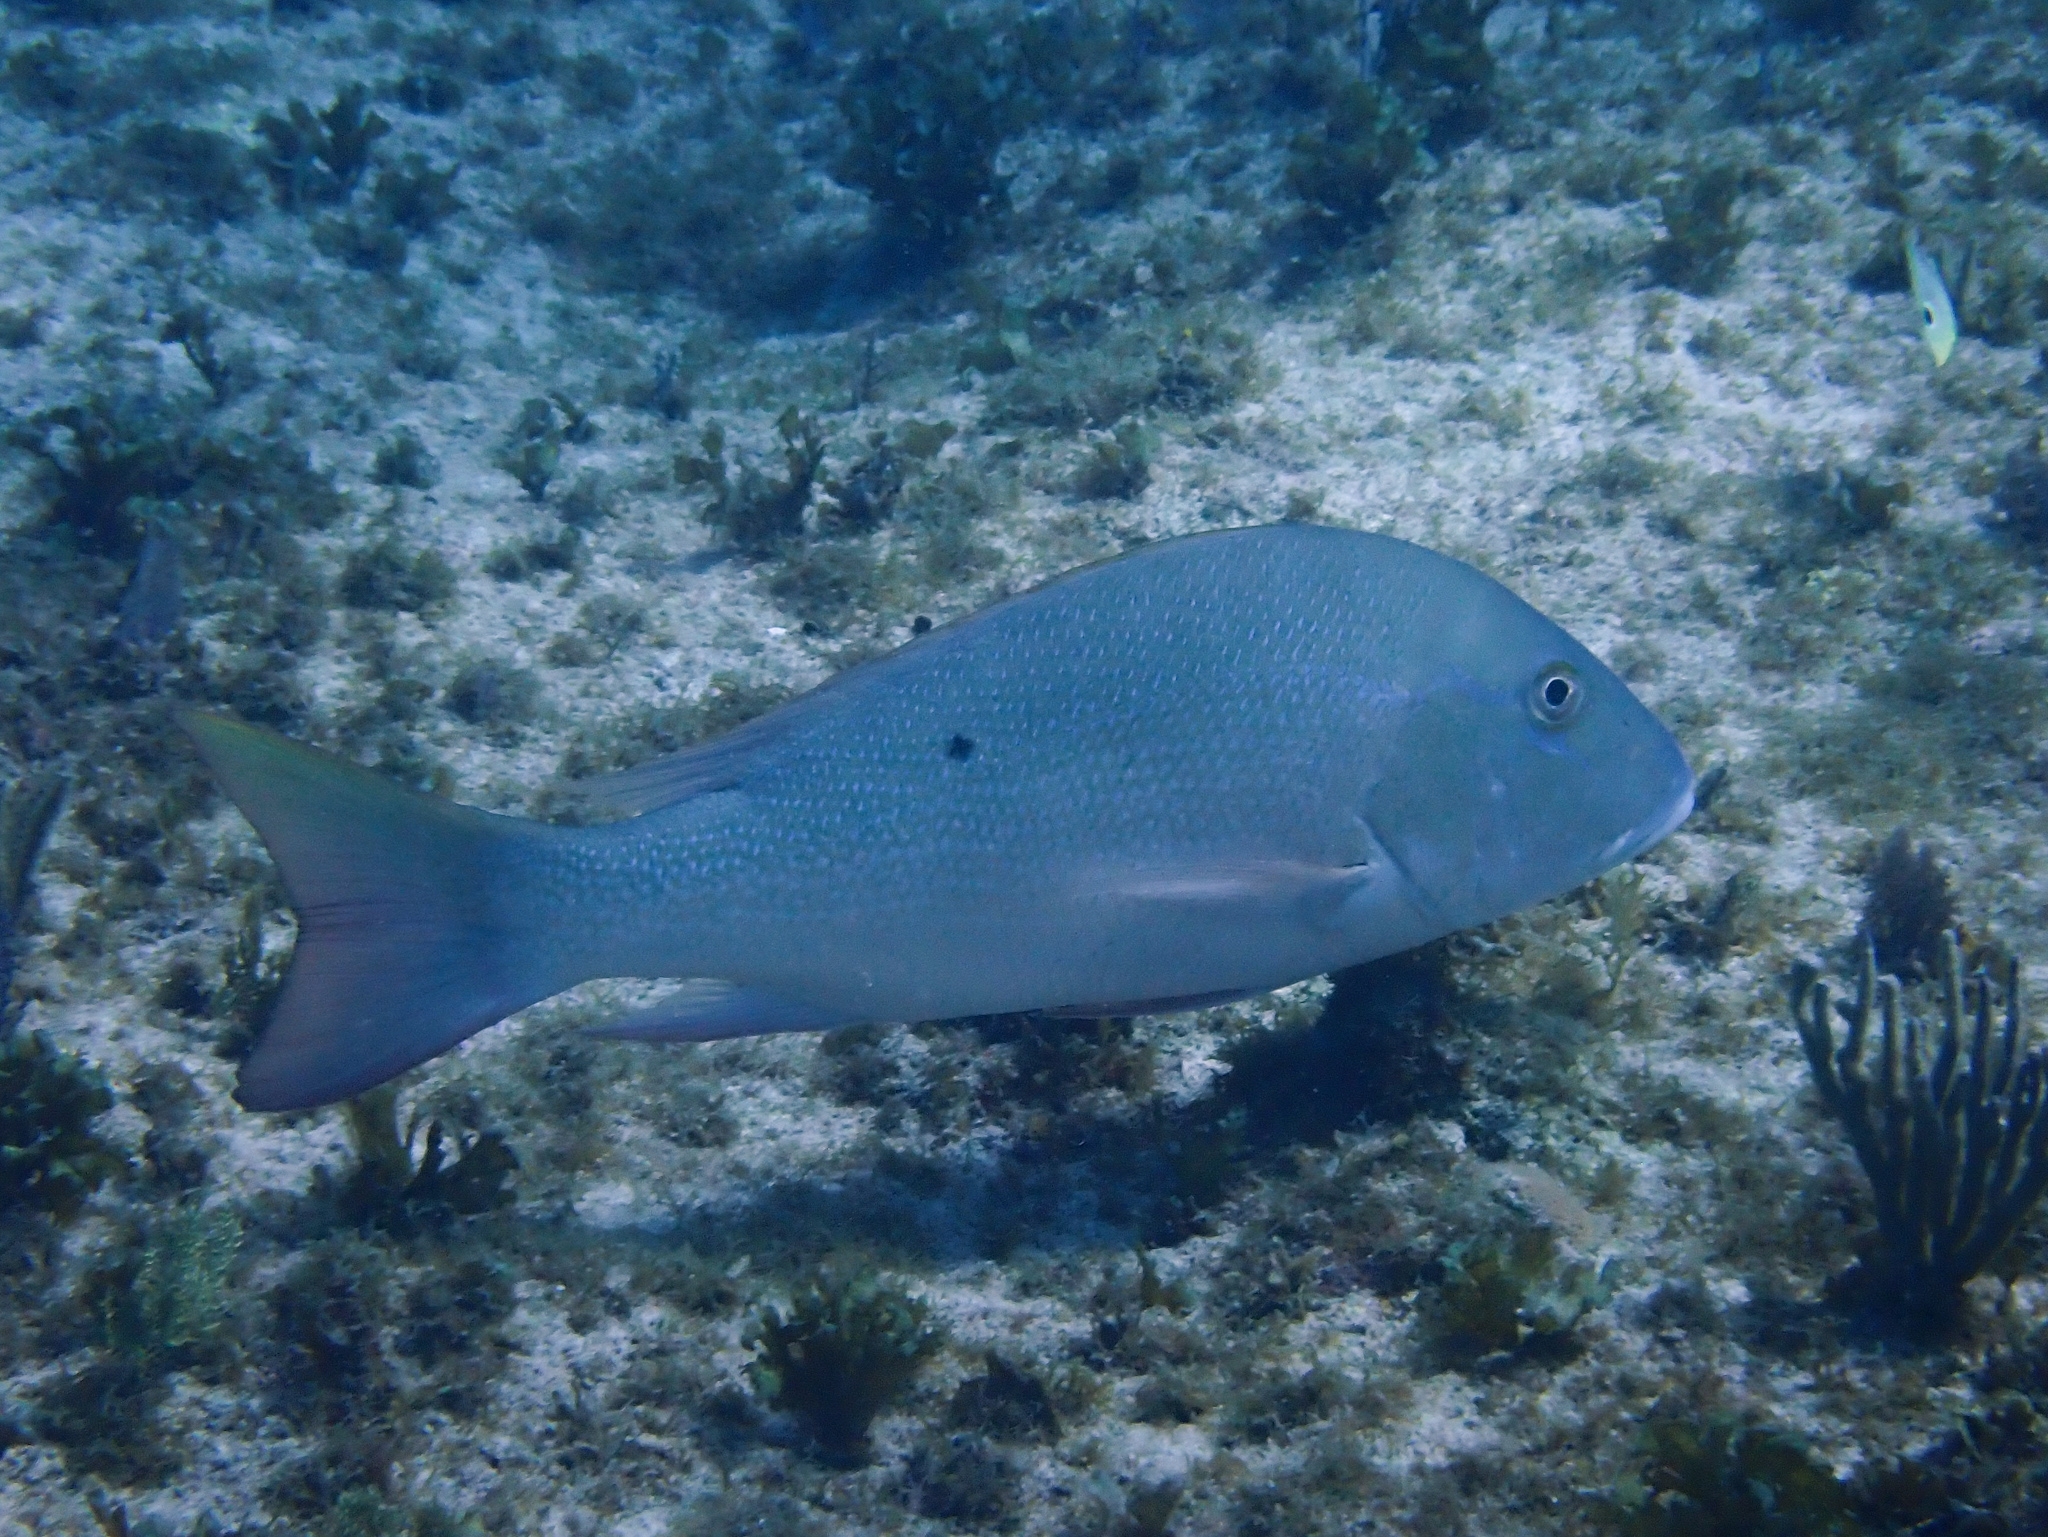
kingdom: Animalia
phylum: Chordata
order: Perciformes
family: Lutjanidae
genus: Lutjanus
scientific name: Lutjanus analis
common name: Mutton snapper
